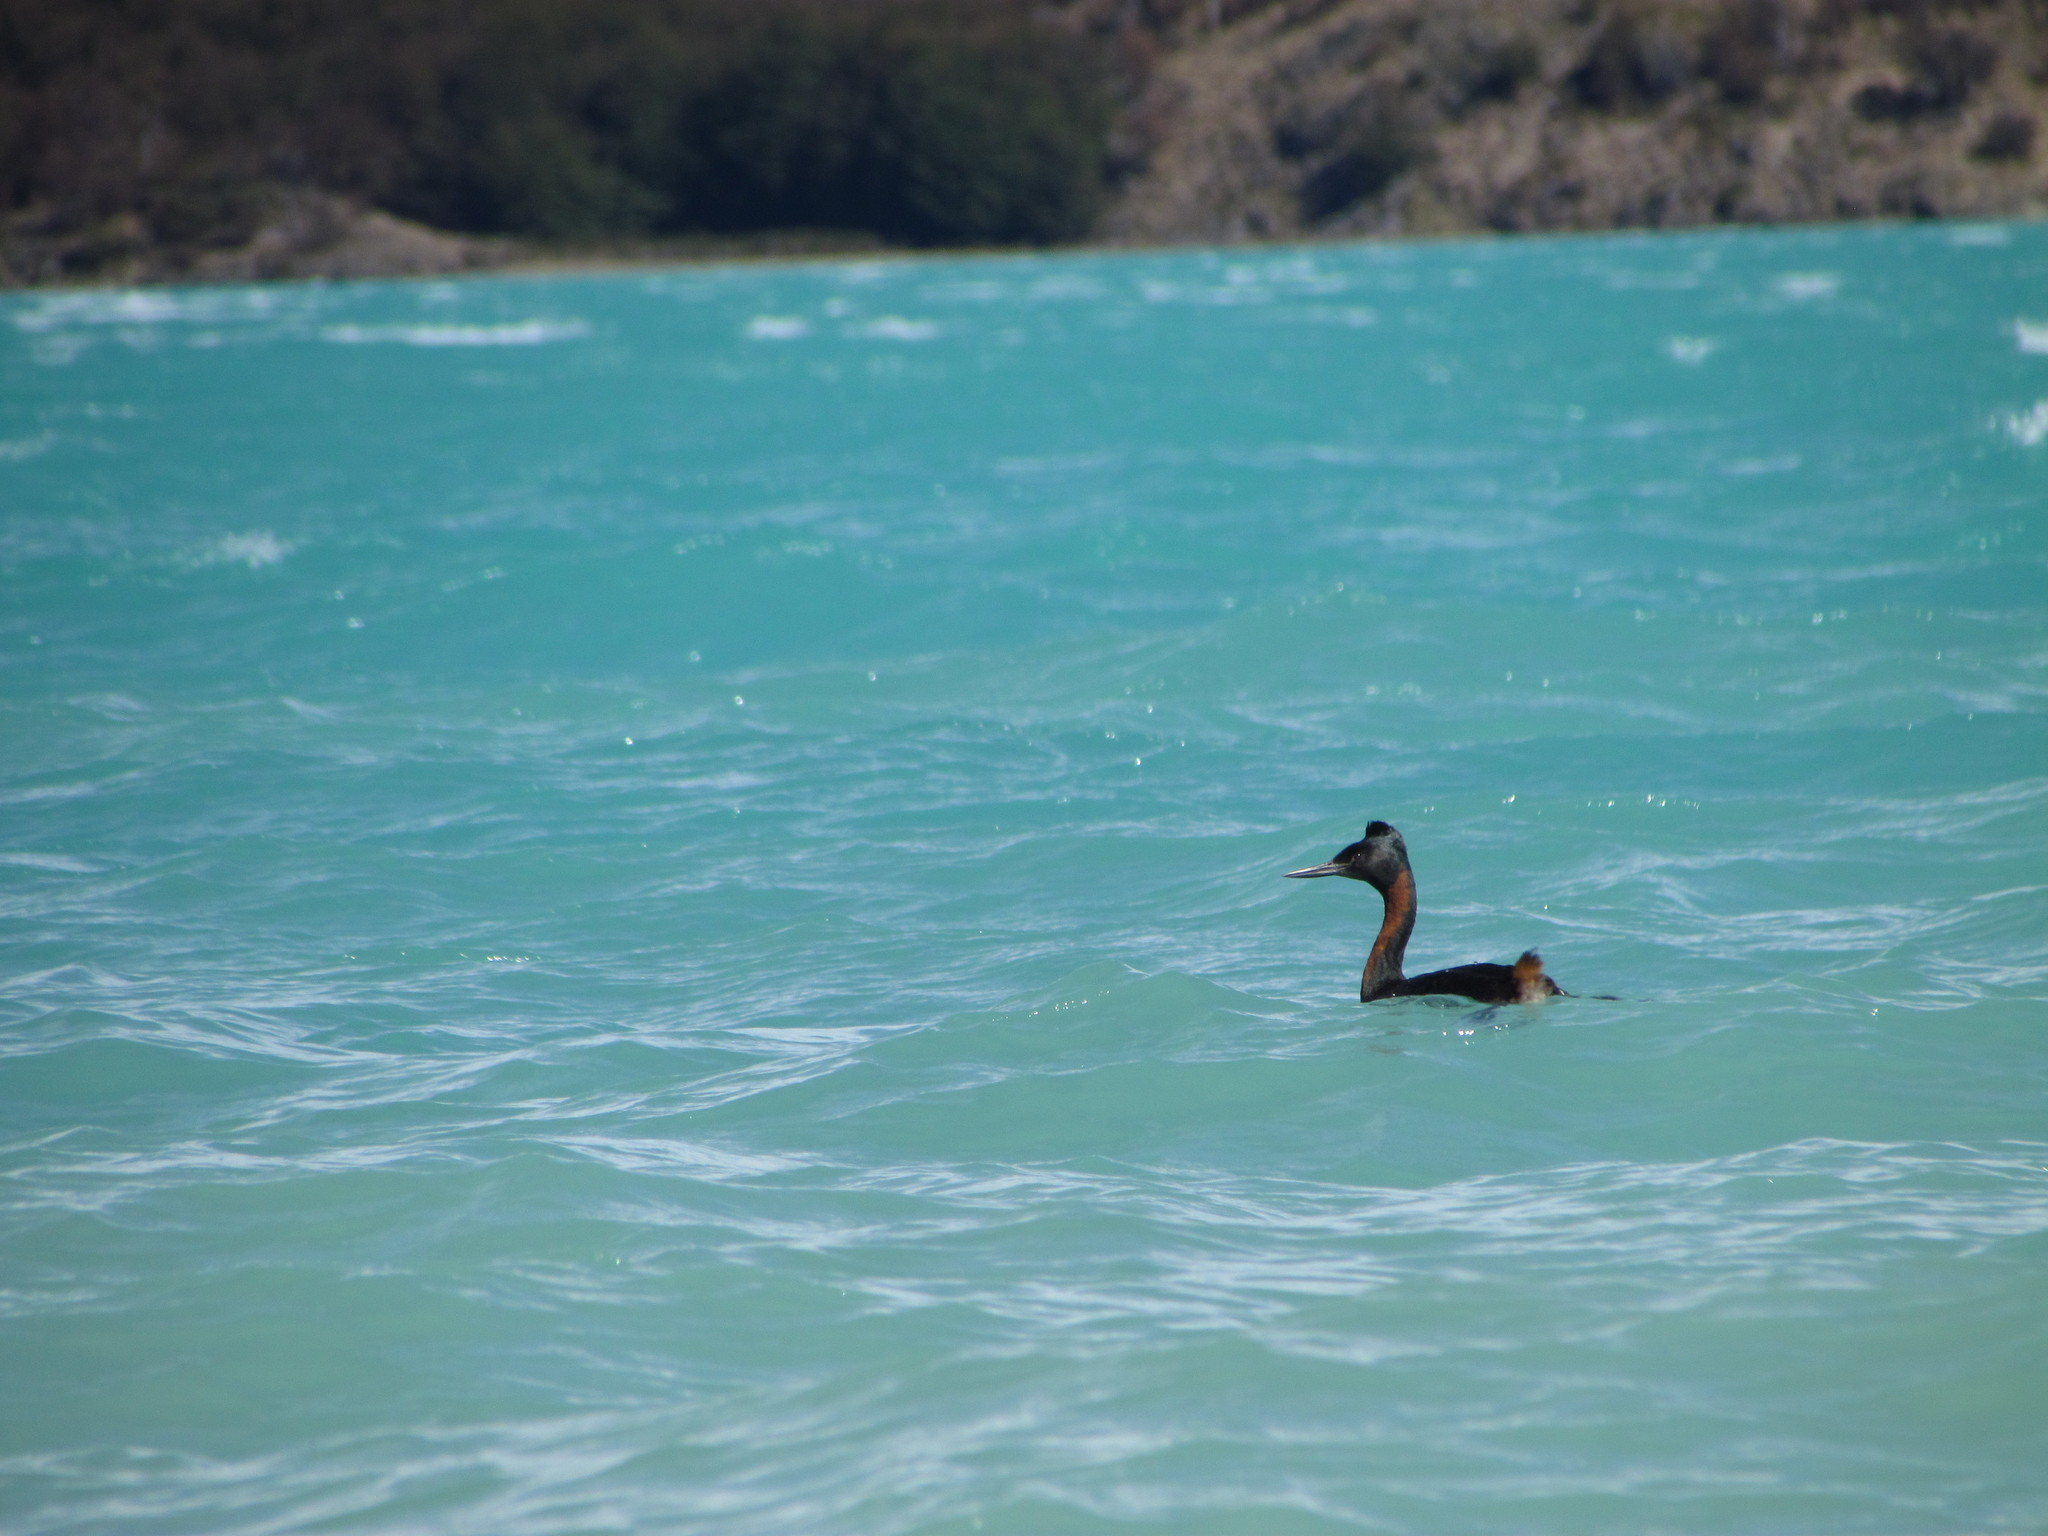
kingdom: Animalia
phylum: Chordata
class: Aves
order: Podicipediformes
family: Podicipedidae
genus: Podiceps
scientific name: Podiceps major
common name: Great grebe
